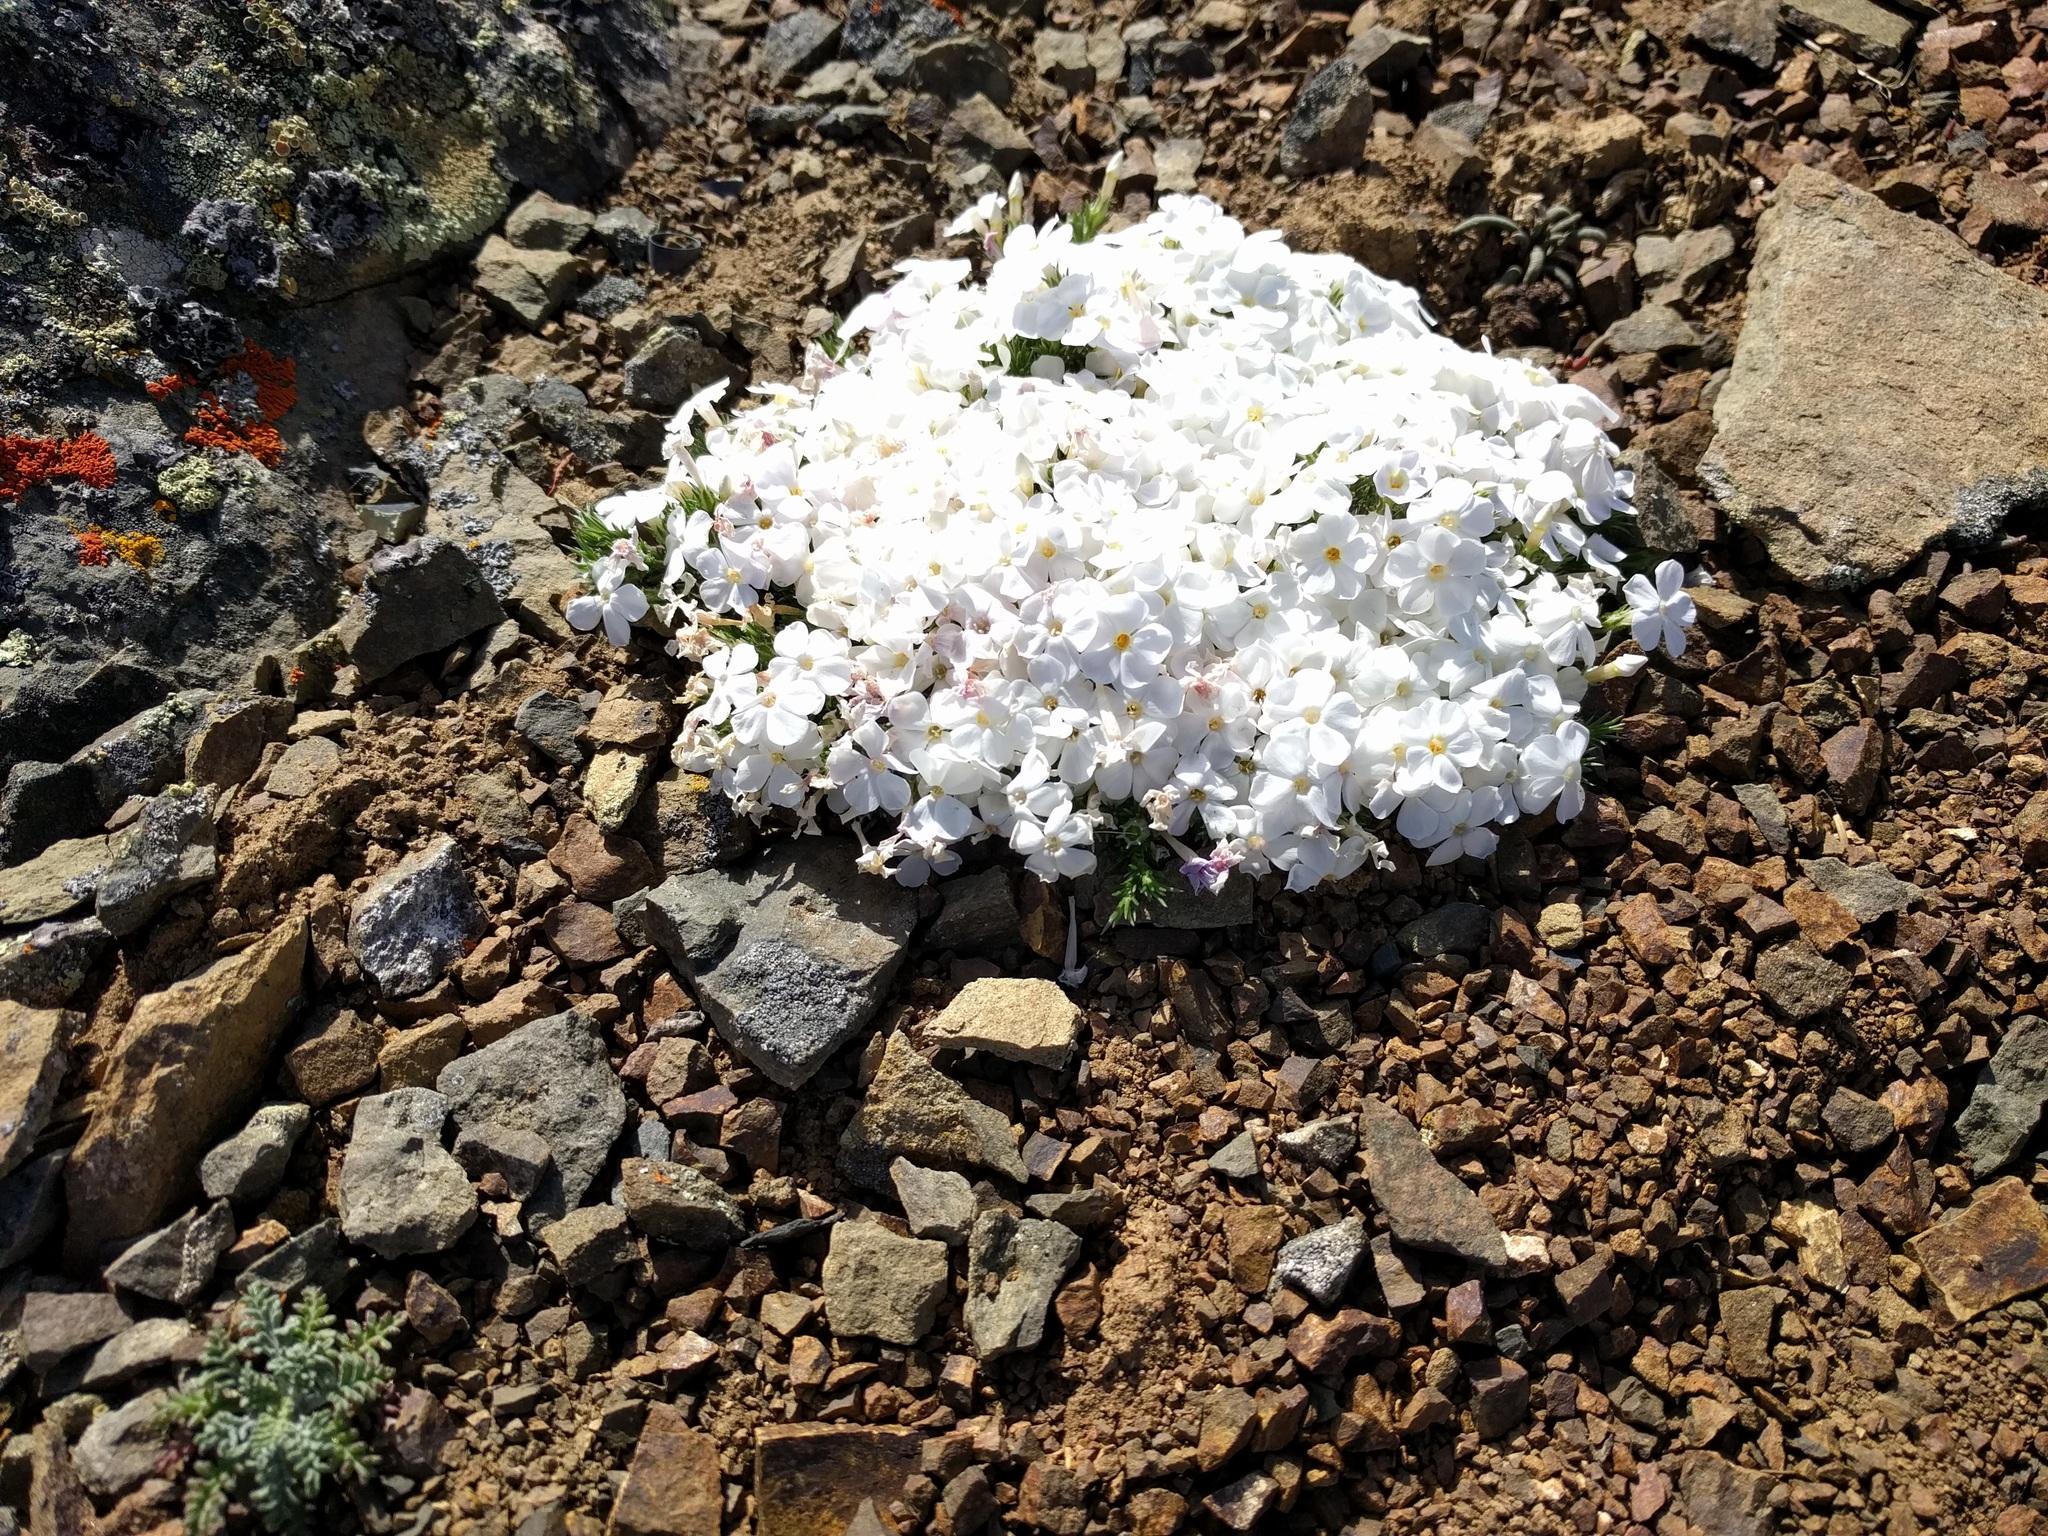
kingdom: Plantae
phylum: Tracheophyta
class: Magnoliopsida
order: Ericales
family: Polemoniaceae
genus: Phlox
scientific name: Phlox diffusa
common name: Mat phlox
